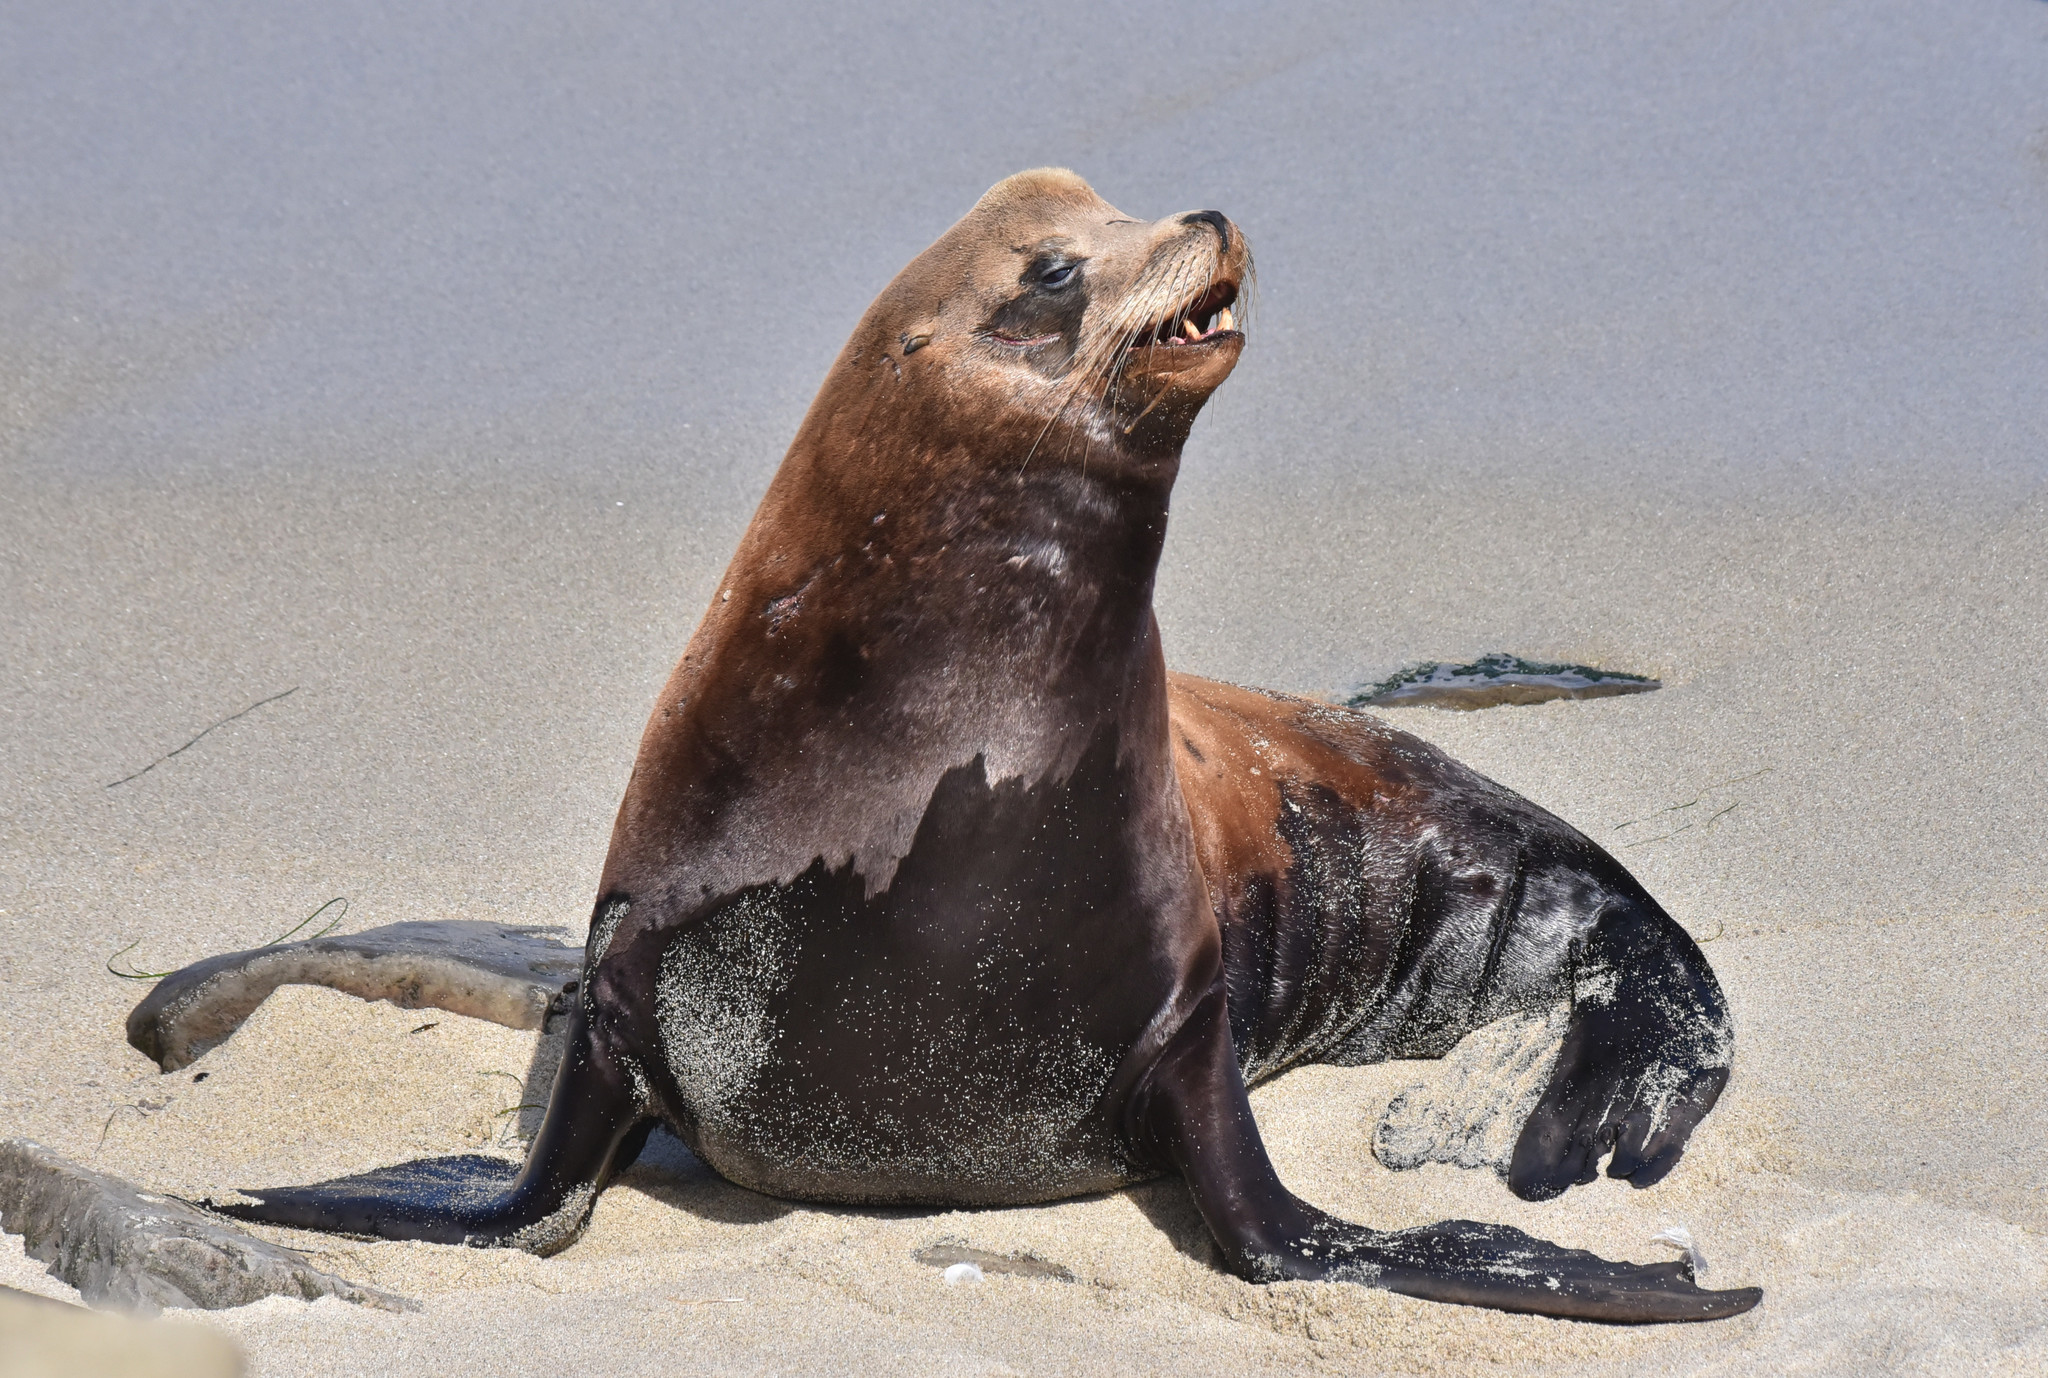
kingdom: Animalia
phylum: Chordata
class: Mammalia
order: Carnivora
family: Otariidae
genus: Zalophus
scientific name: Zalophus californianus
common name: California sea lion
